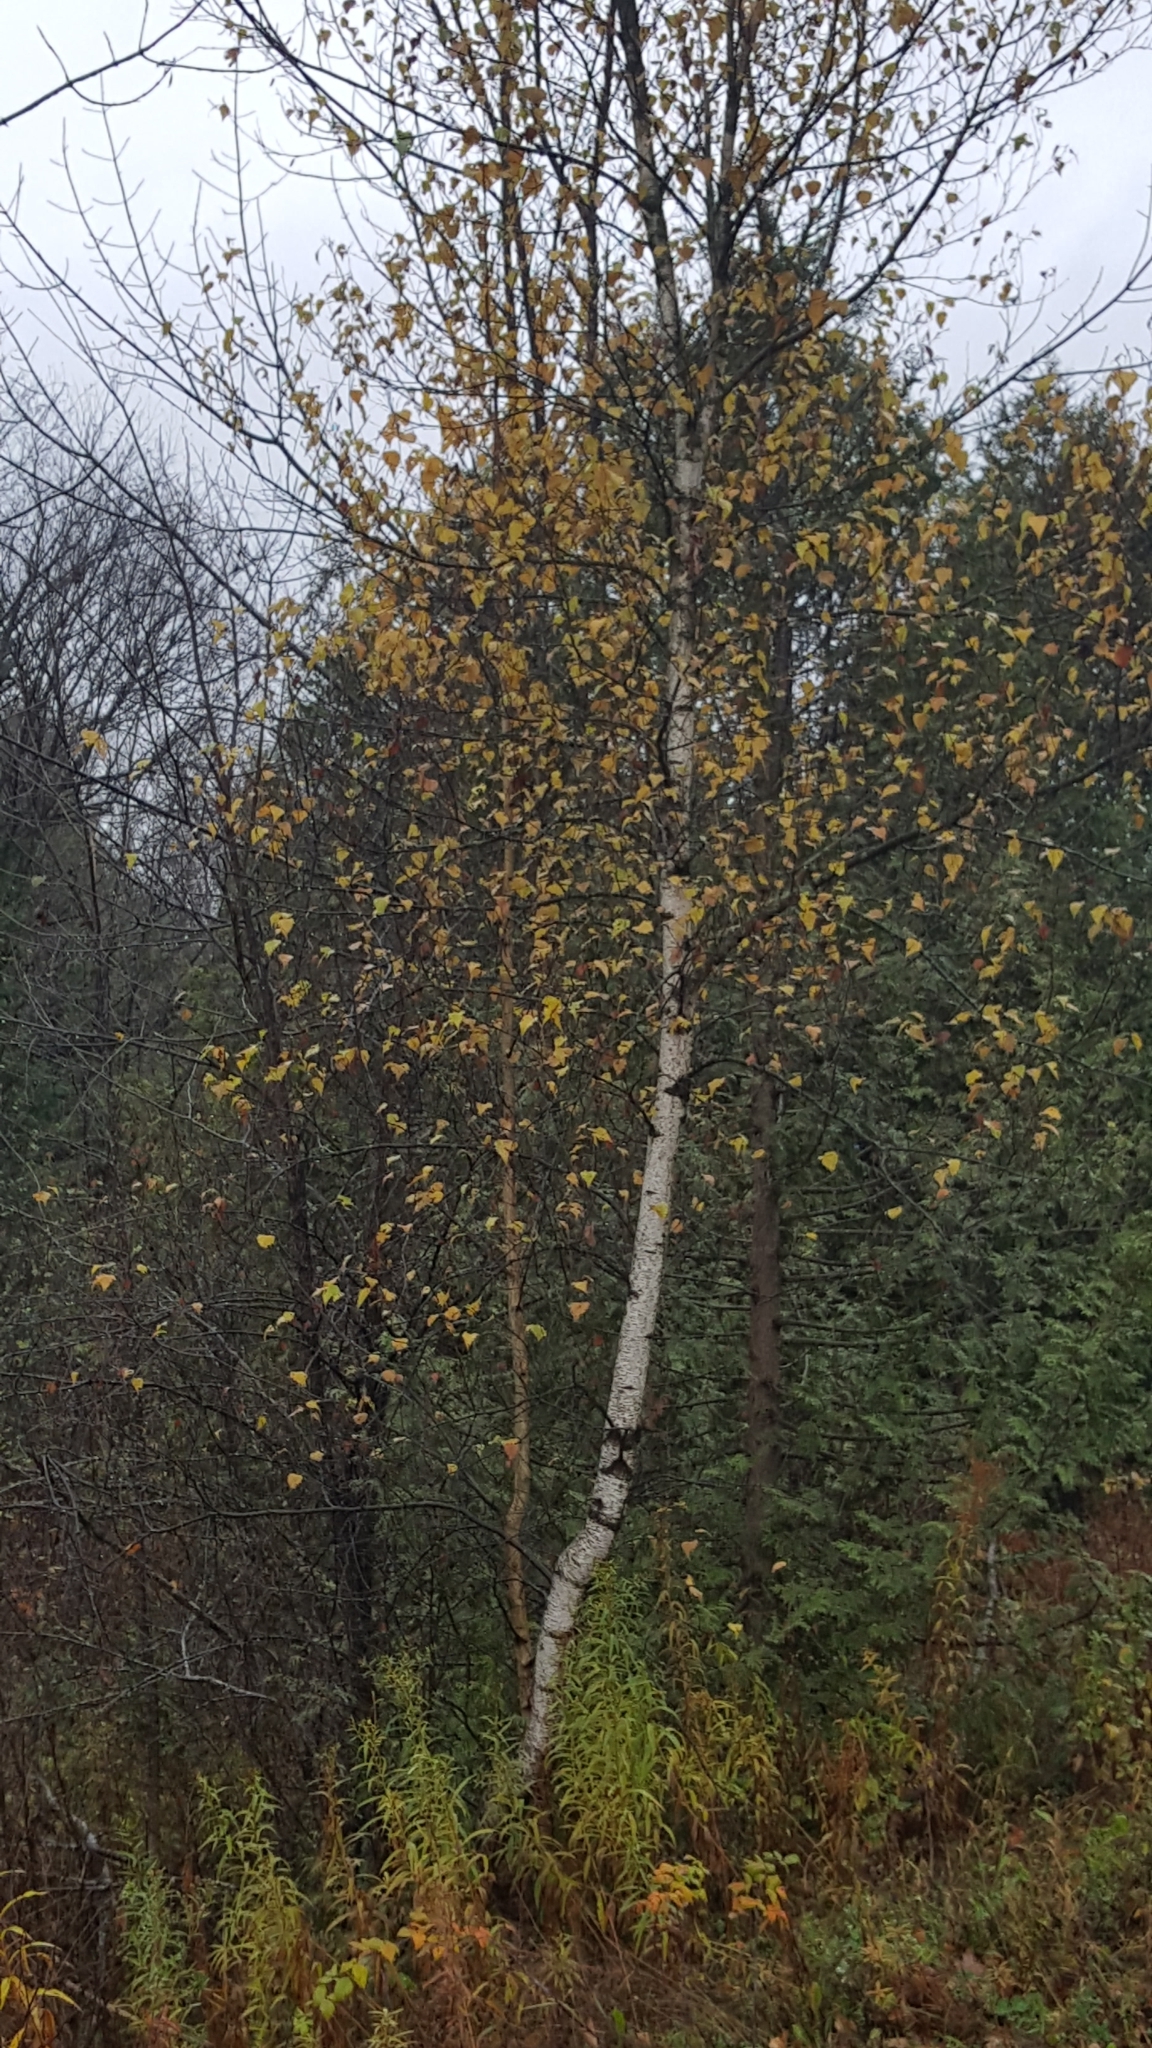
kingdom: Plantae
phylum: Tracheophyta
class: Magnoliopsida
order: Fagales
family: Betulaceae
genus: Betula
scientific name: Betula populifolia
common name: Fire birch
